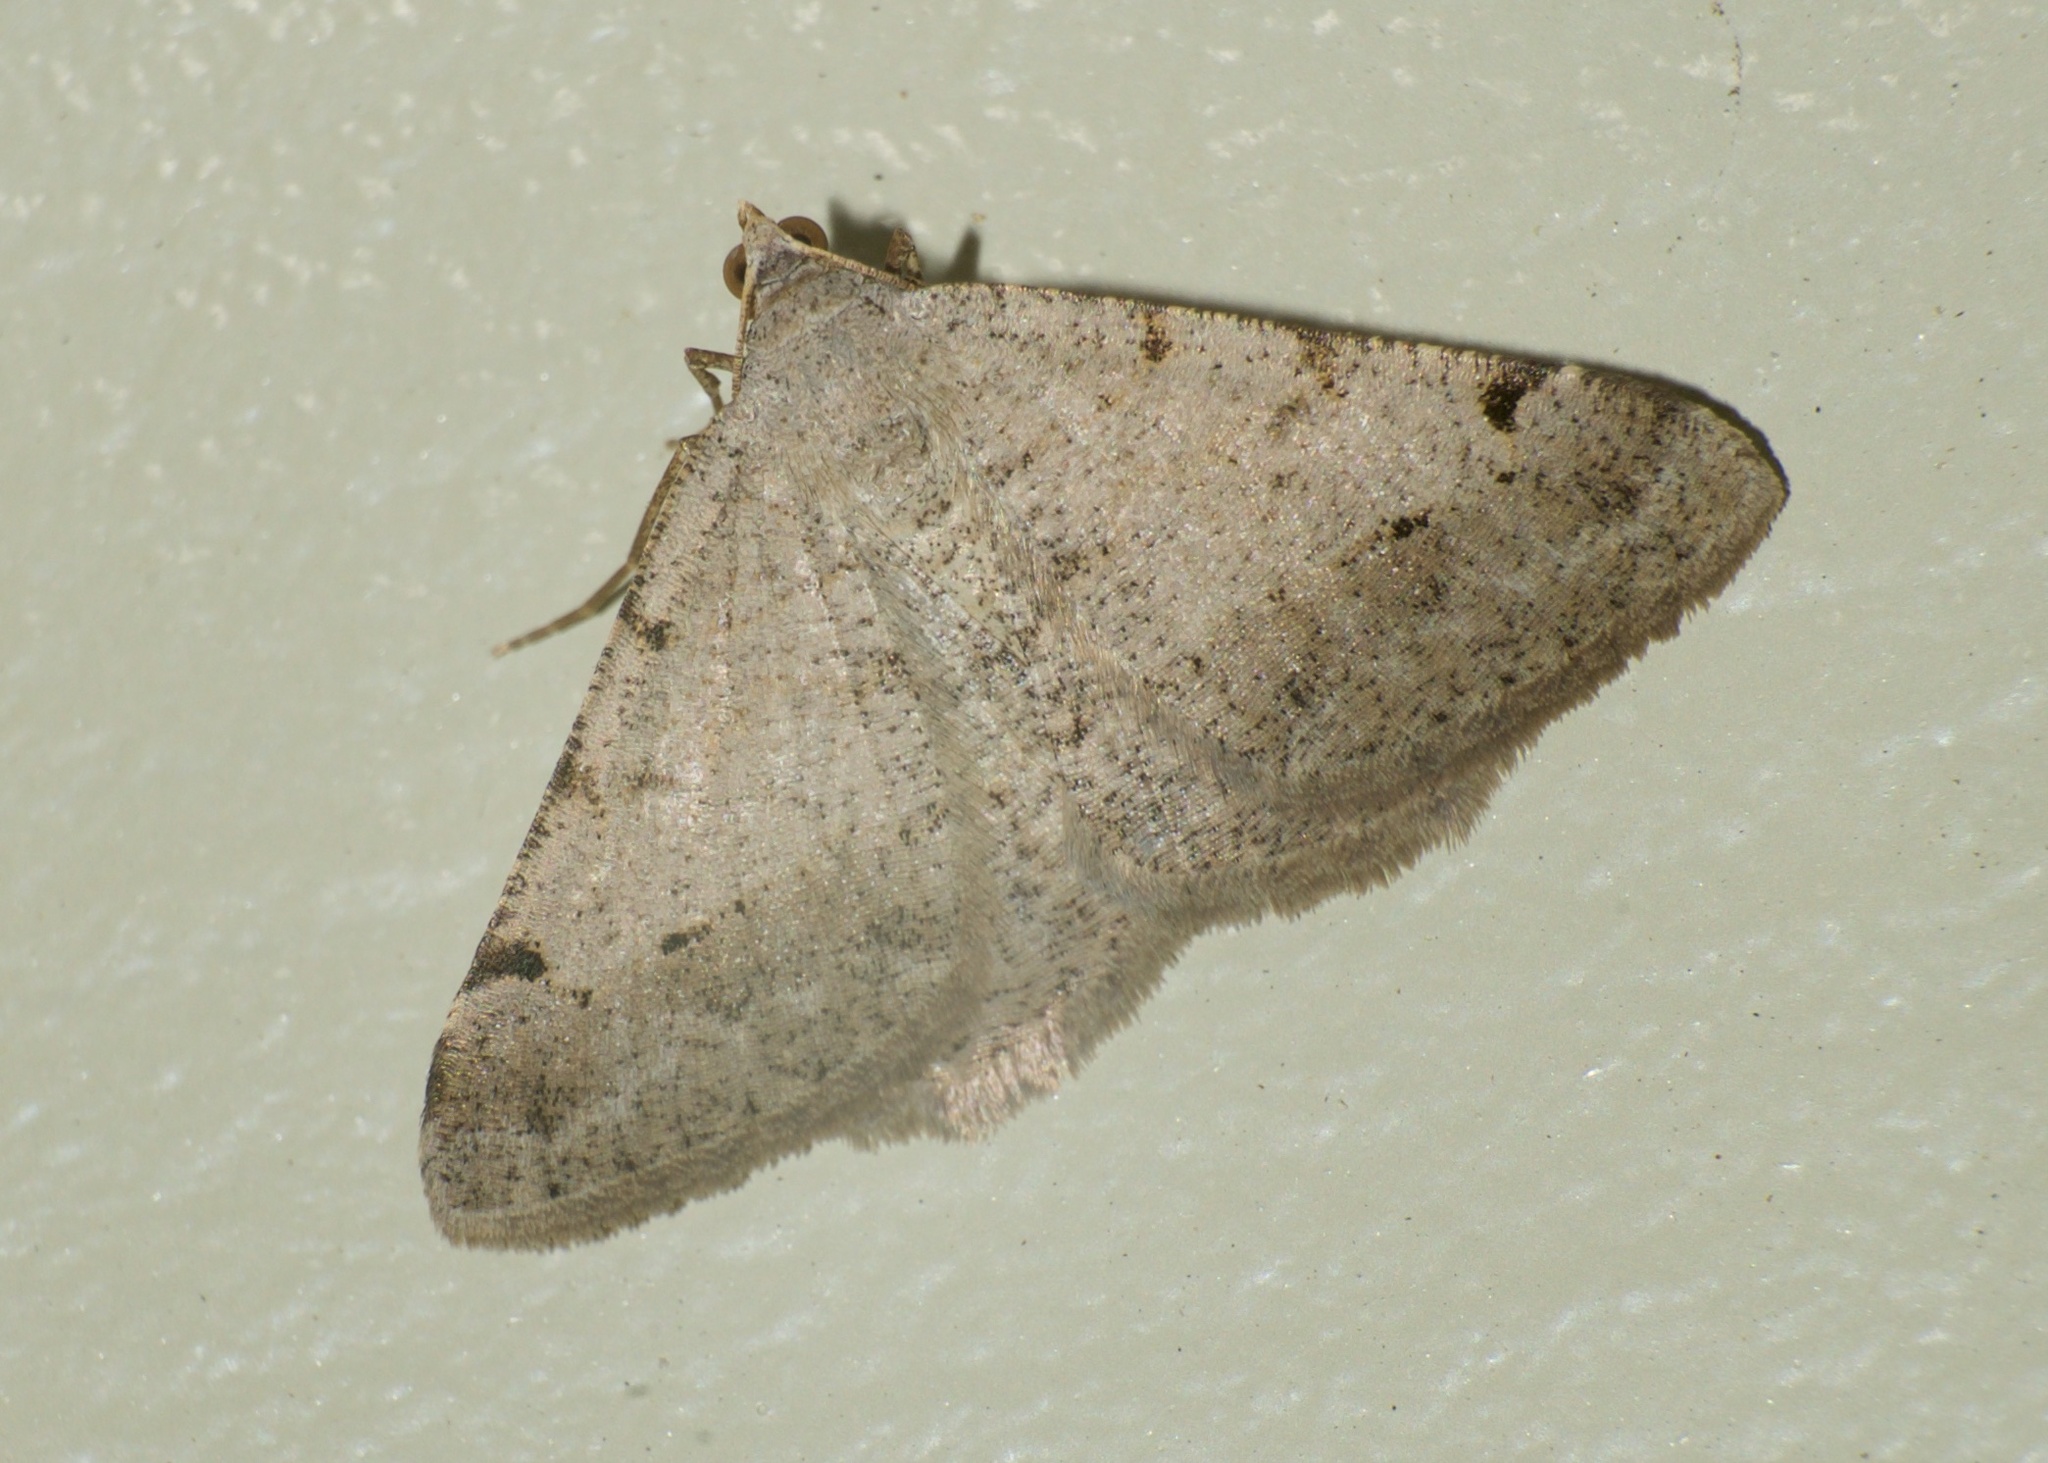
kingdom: Animalia
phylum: Arthropoda
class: Insecta
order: Lepidoptera
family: Geometridae
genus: Macaria
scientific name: Macaria signaria
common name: Dusky peacock
